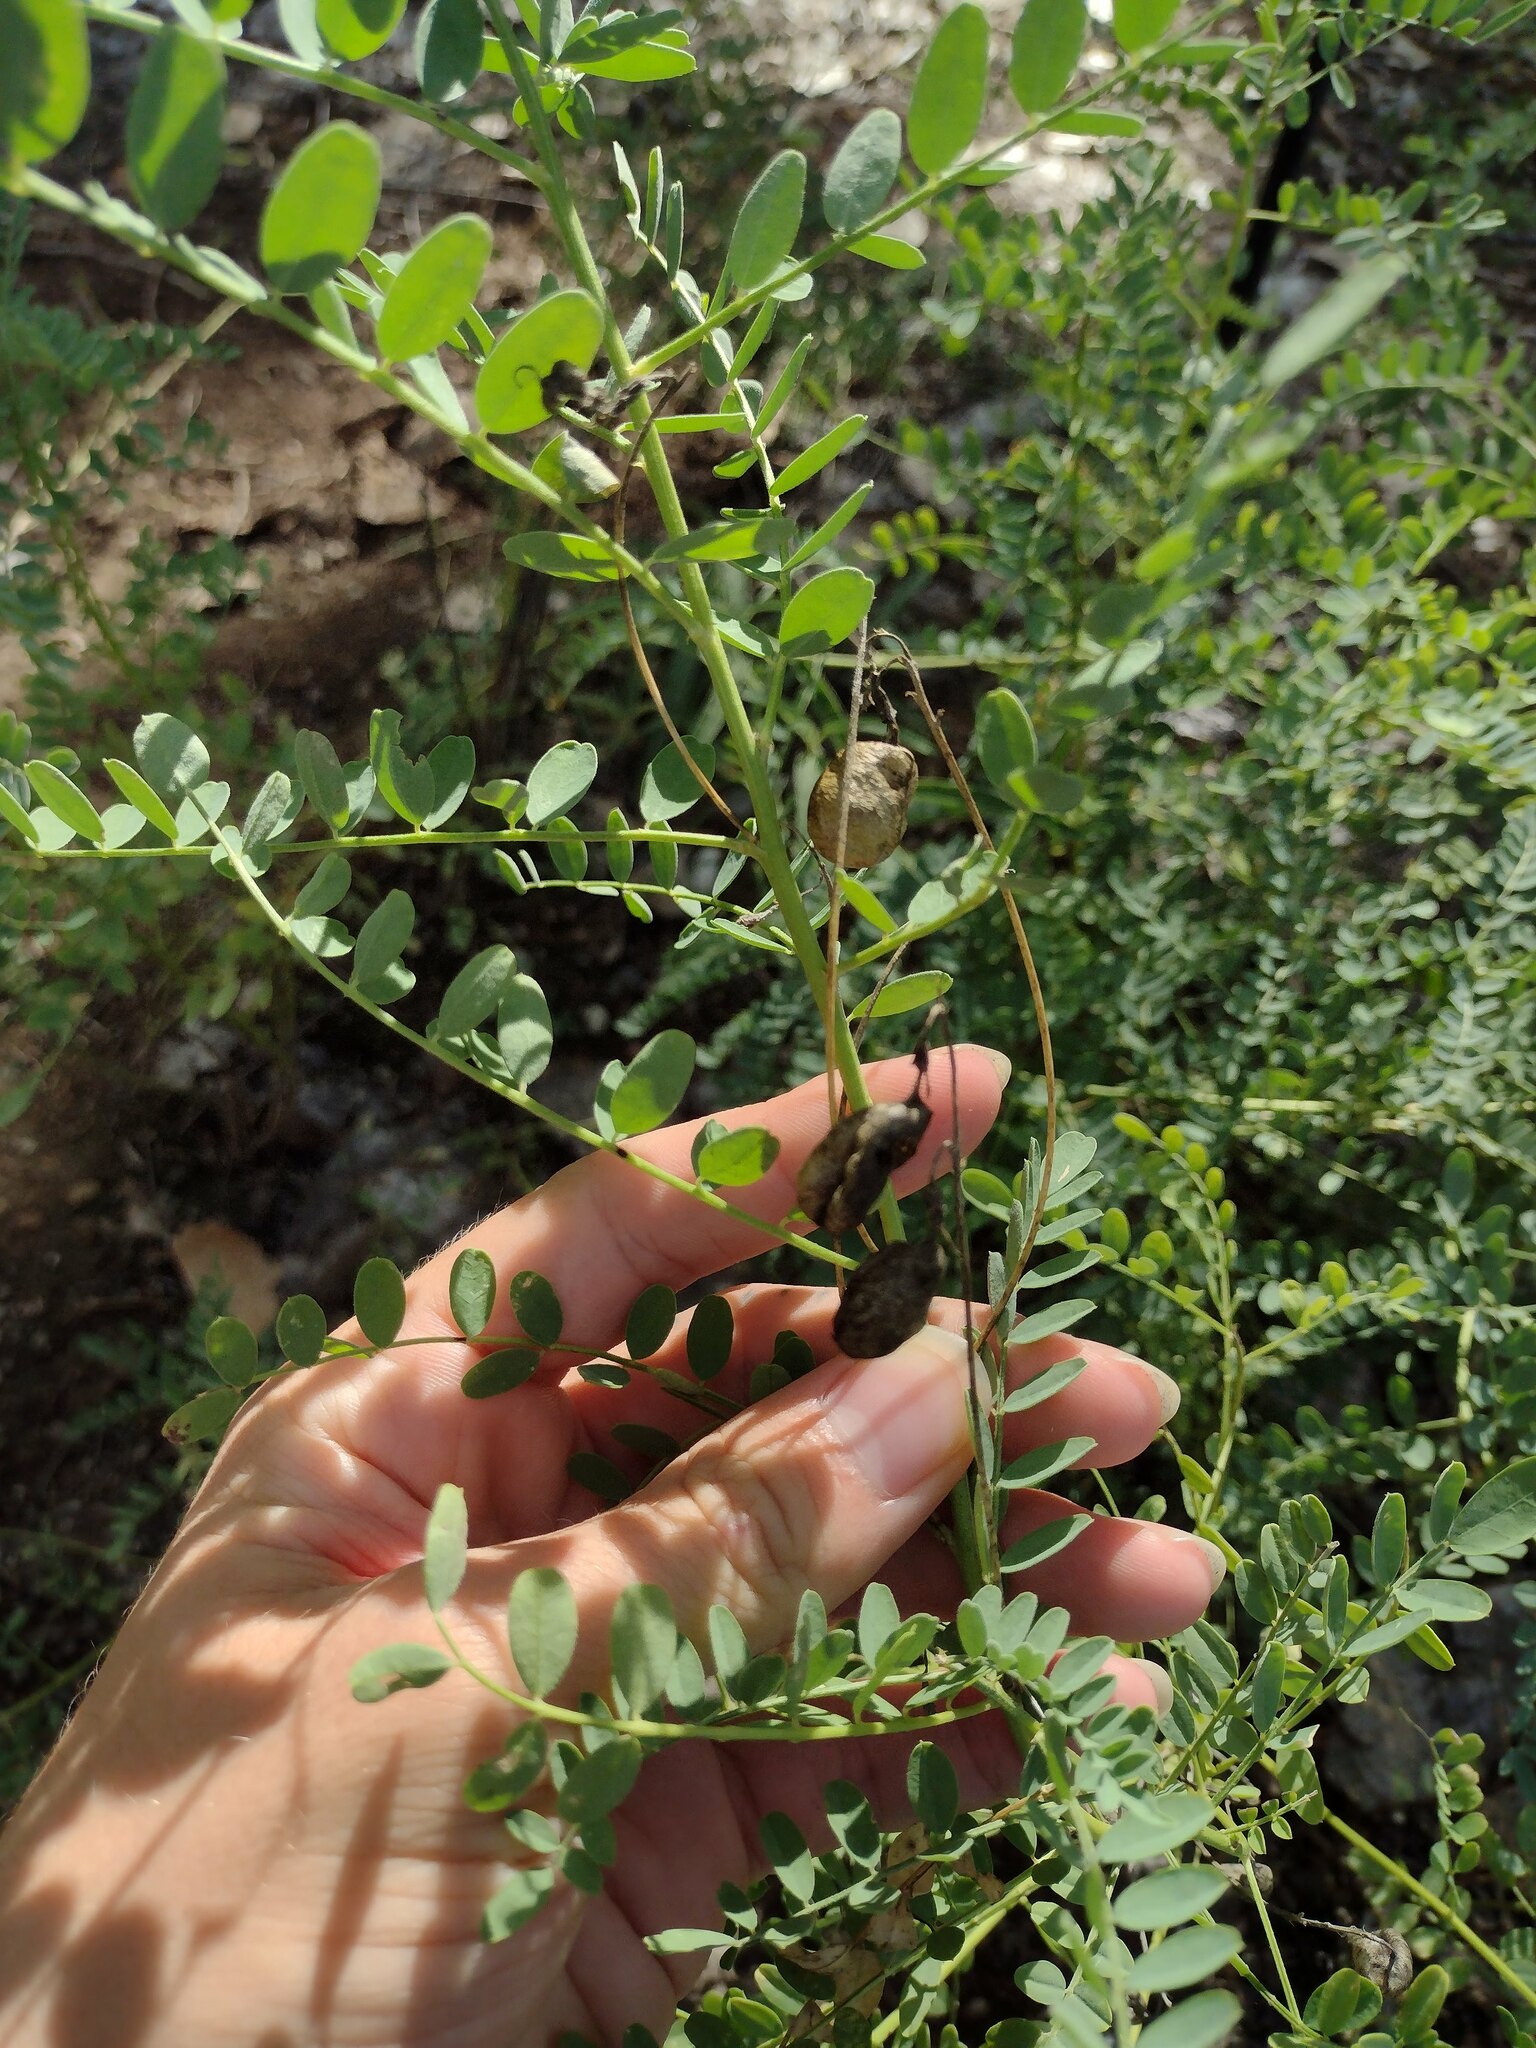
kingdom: Plantae
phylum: Tracheophyta
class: Magnoliopsida
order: Fabales
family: Fabaceae
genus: Sphaerophysa
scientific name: Sphaerophysa salsula
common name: Alkali swainsonpea
